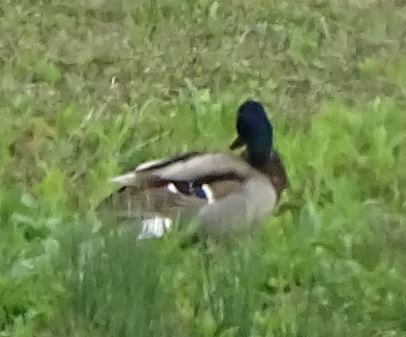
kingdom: Animalia
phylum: Chordata
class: Aves
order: Anseriformes
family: Anatidae
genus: Anas
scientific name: Anas platyrhynchos
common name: Mallard
